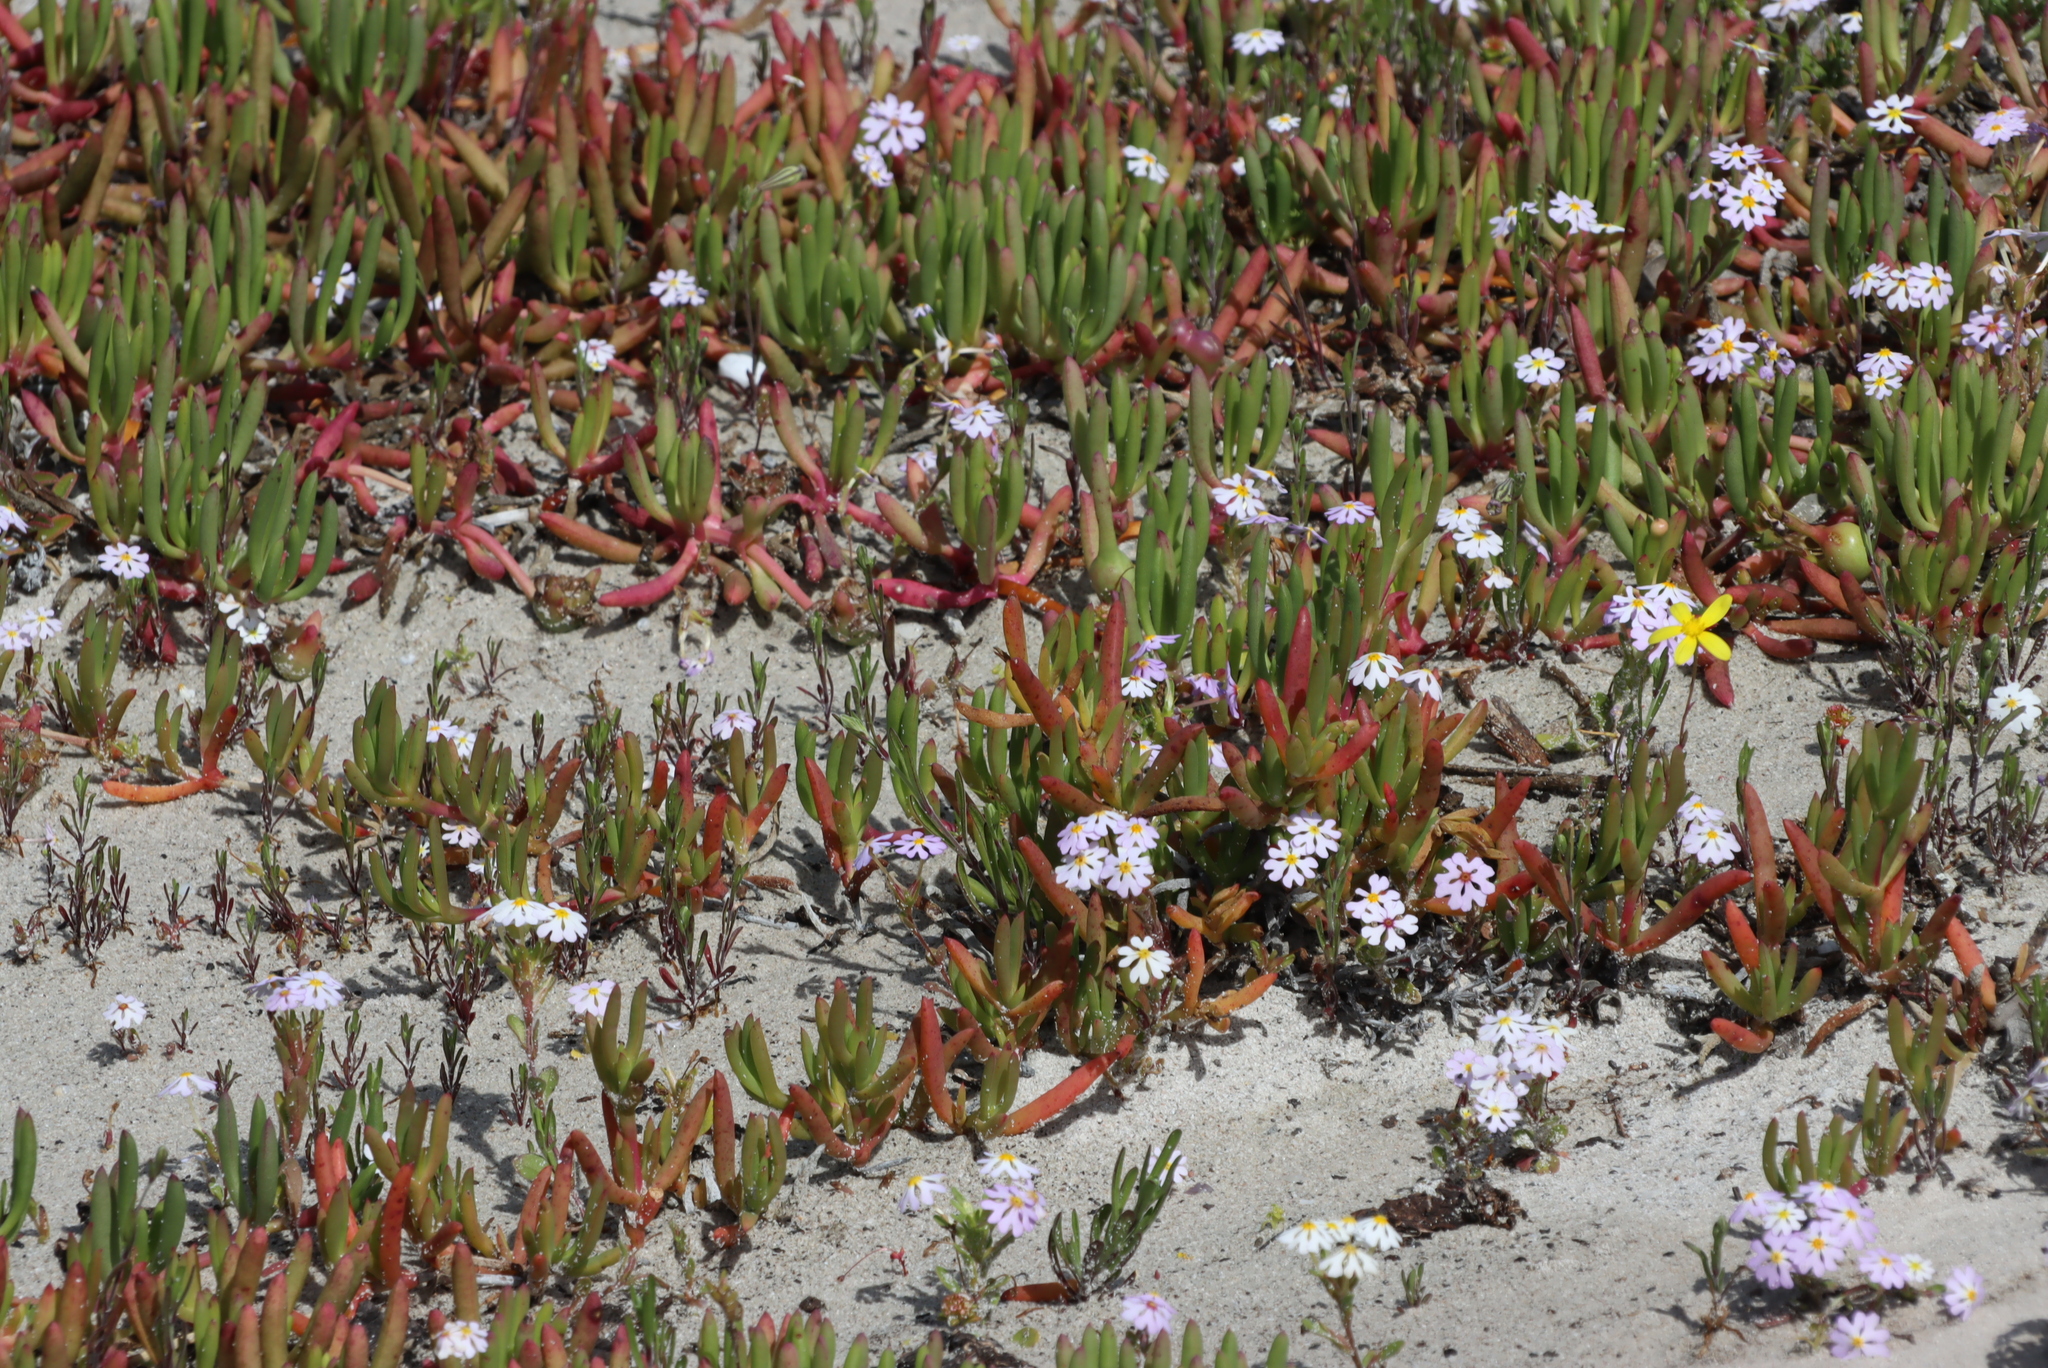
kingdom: Plantae
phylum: Tracheophyta
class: Magnoliopsida
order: Lamiales
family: Scrophulariaceae
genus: Zaluzianskya
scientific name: Zaluzianskya villosa
